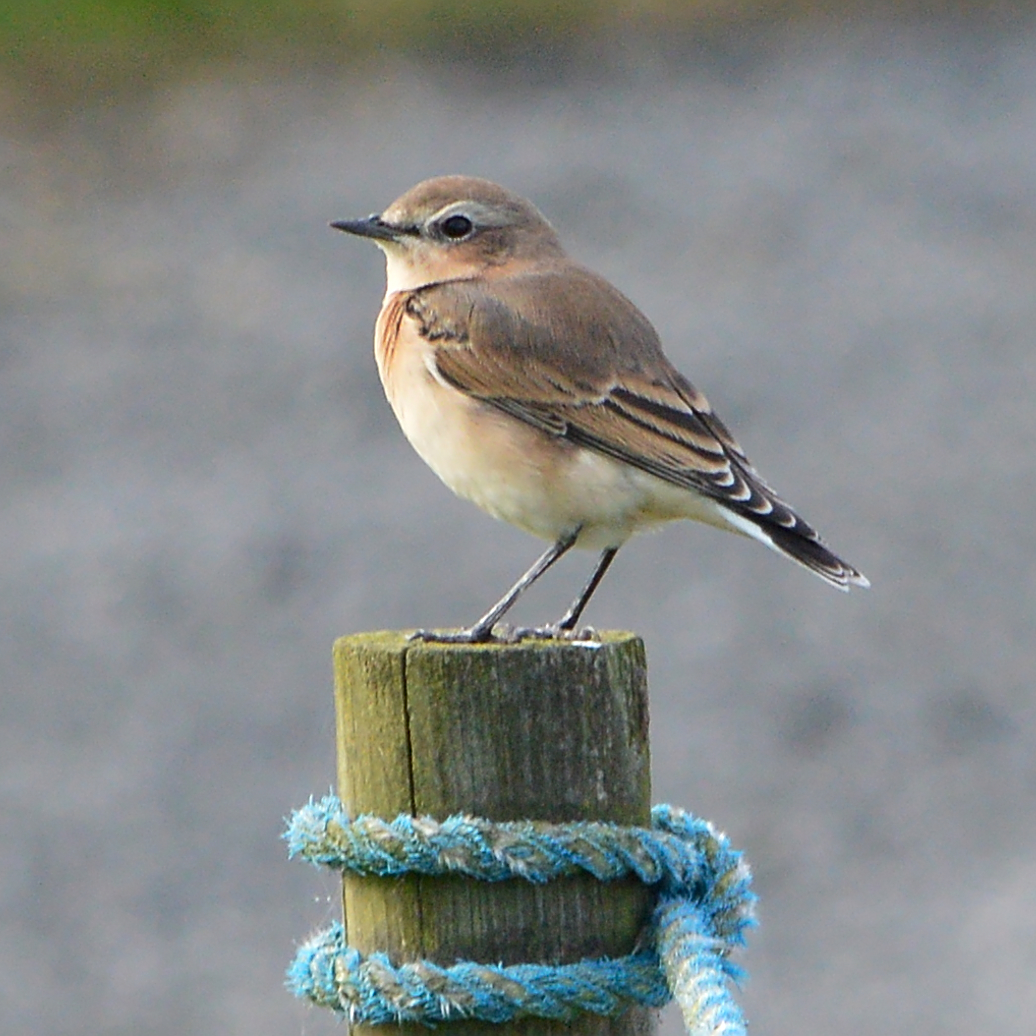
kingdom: Animalia
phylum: Chordata
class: Aves
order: Passeriformes
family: Muscicapidae
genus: Oenanthe
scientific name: Oenanthe oenanthe
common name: Northern wheatear
